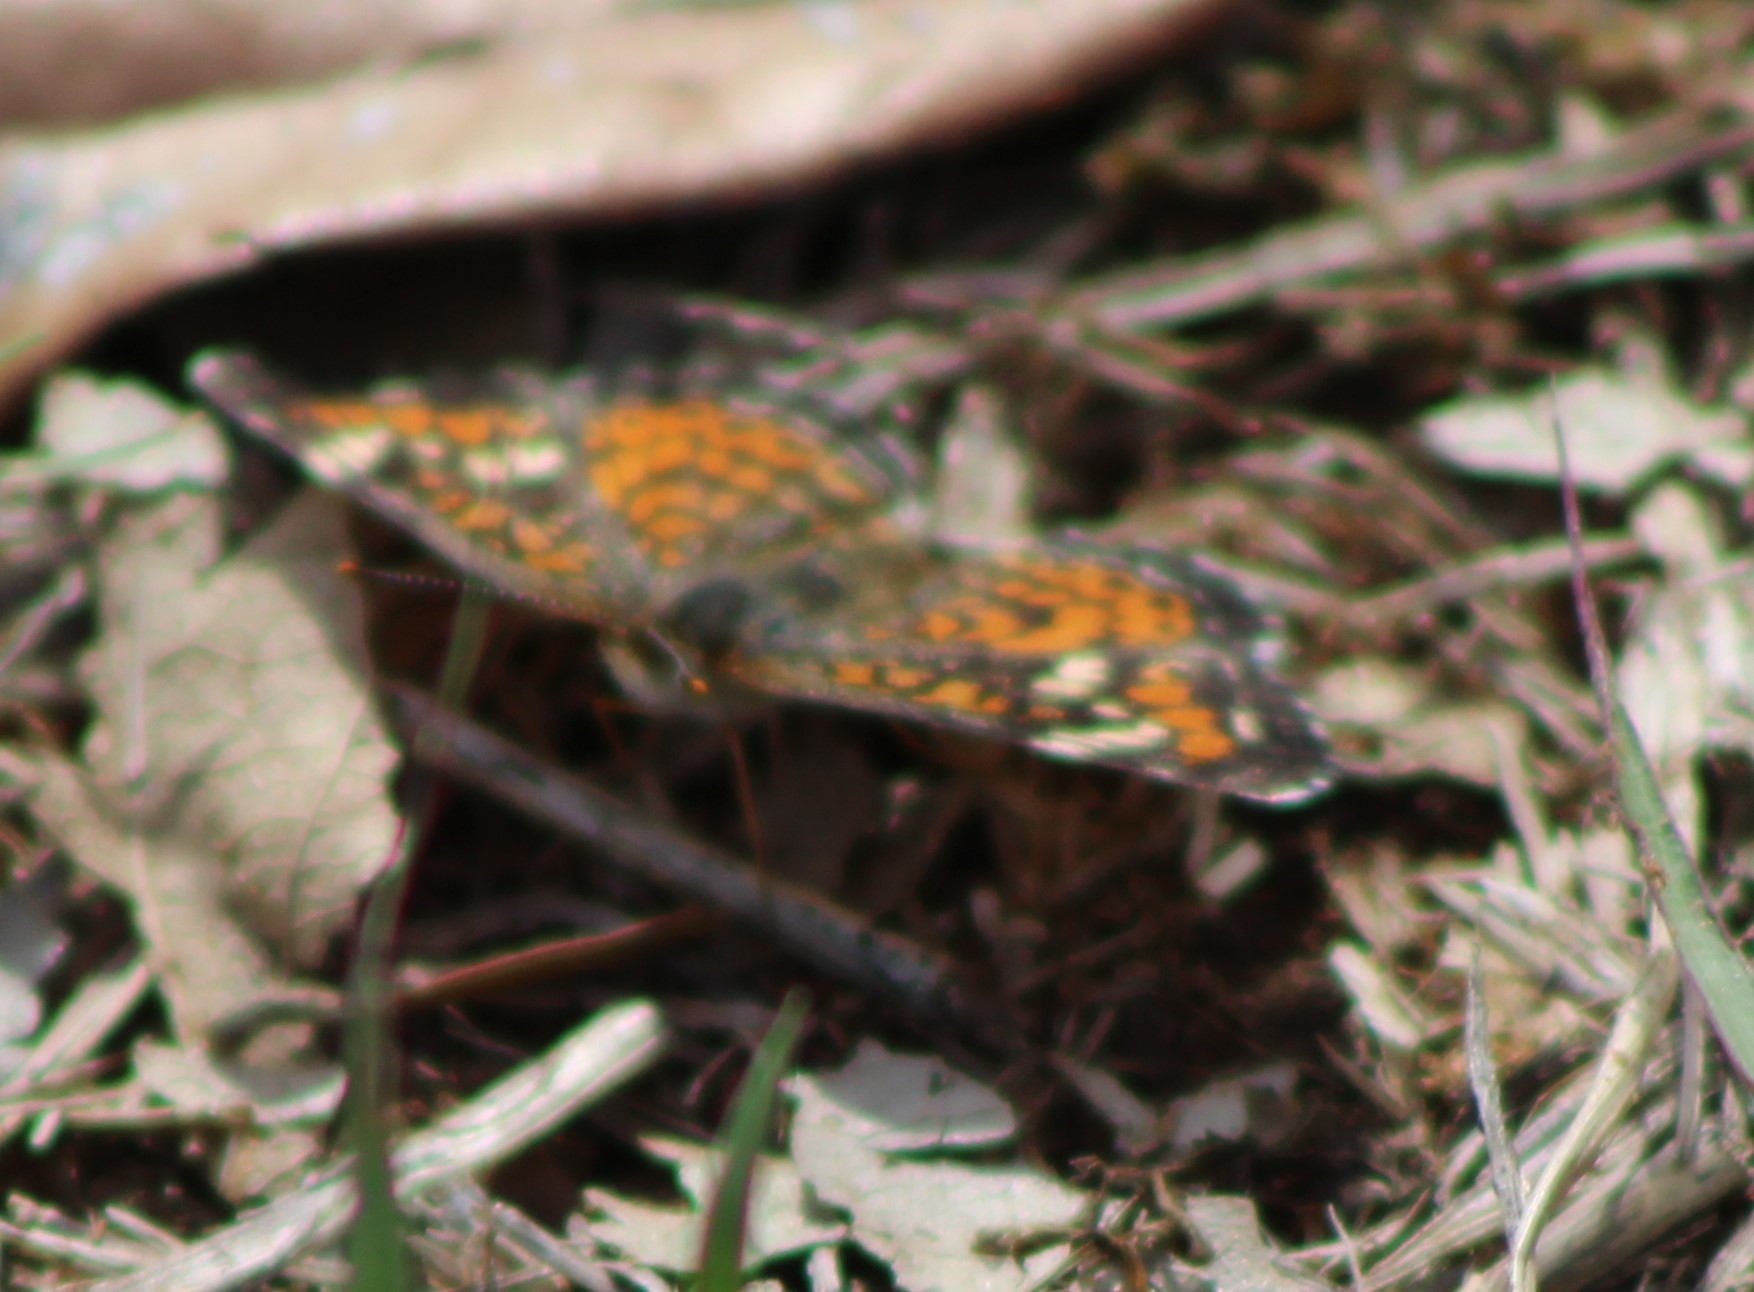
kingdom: Animalia
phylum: Arthropoda
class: Insecta
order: Lepidoptera
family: Nymphalidae
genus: Phyciodes
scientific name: Phyciodes phaon
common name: Phaon crescent
